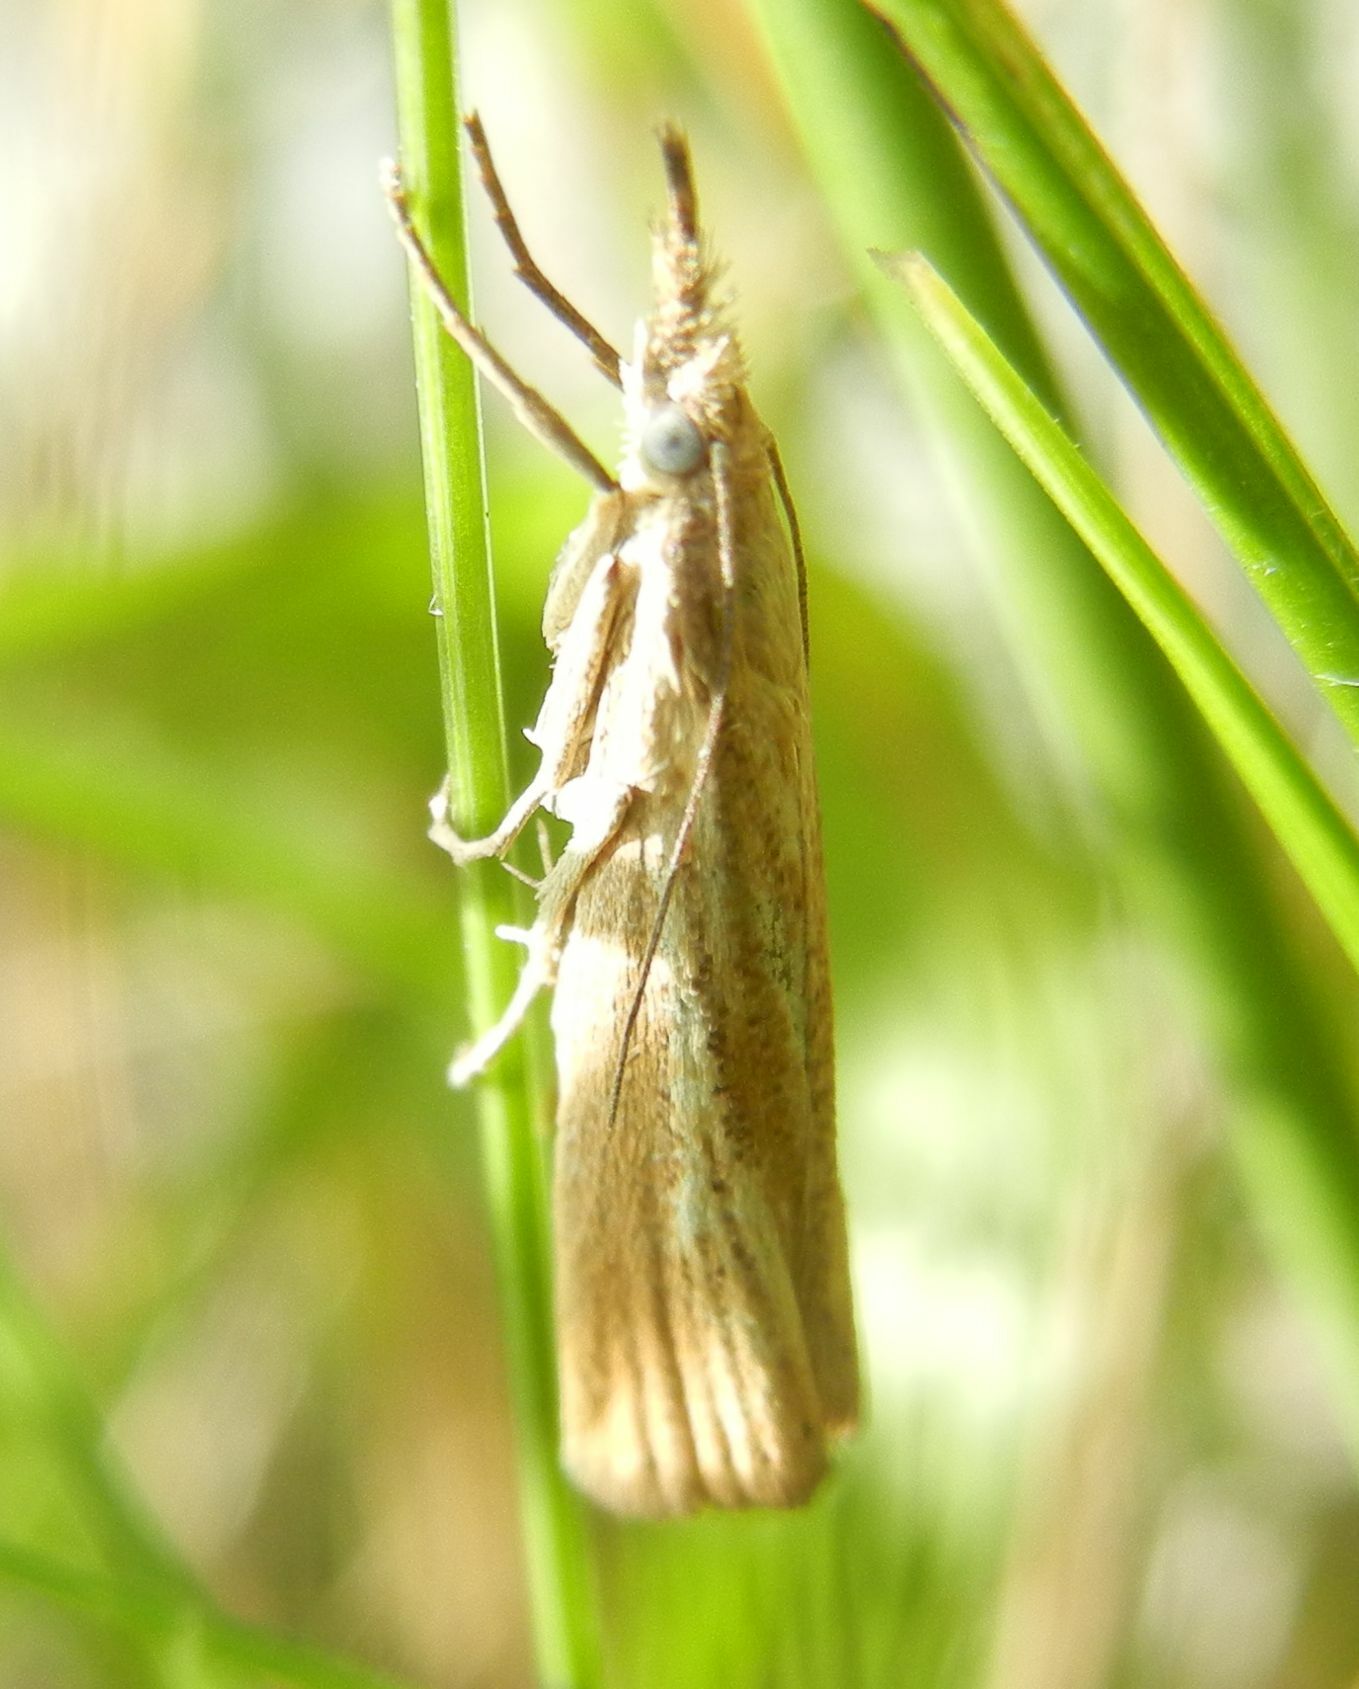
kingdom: Animalia
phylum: Arthropoda
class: Insecta
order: Lepidoptera
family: Crambidae
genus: Agriphila
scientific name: Agriphila straminella
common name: Straw grass-veneer
